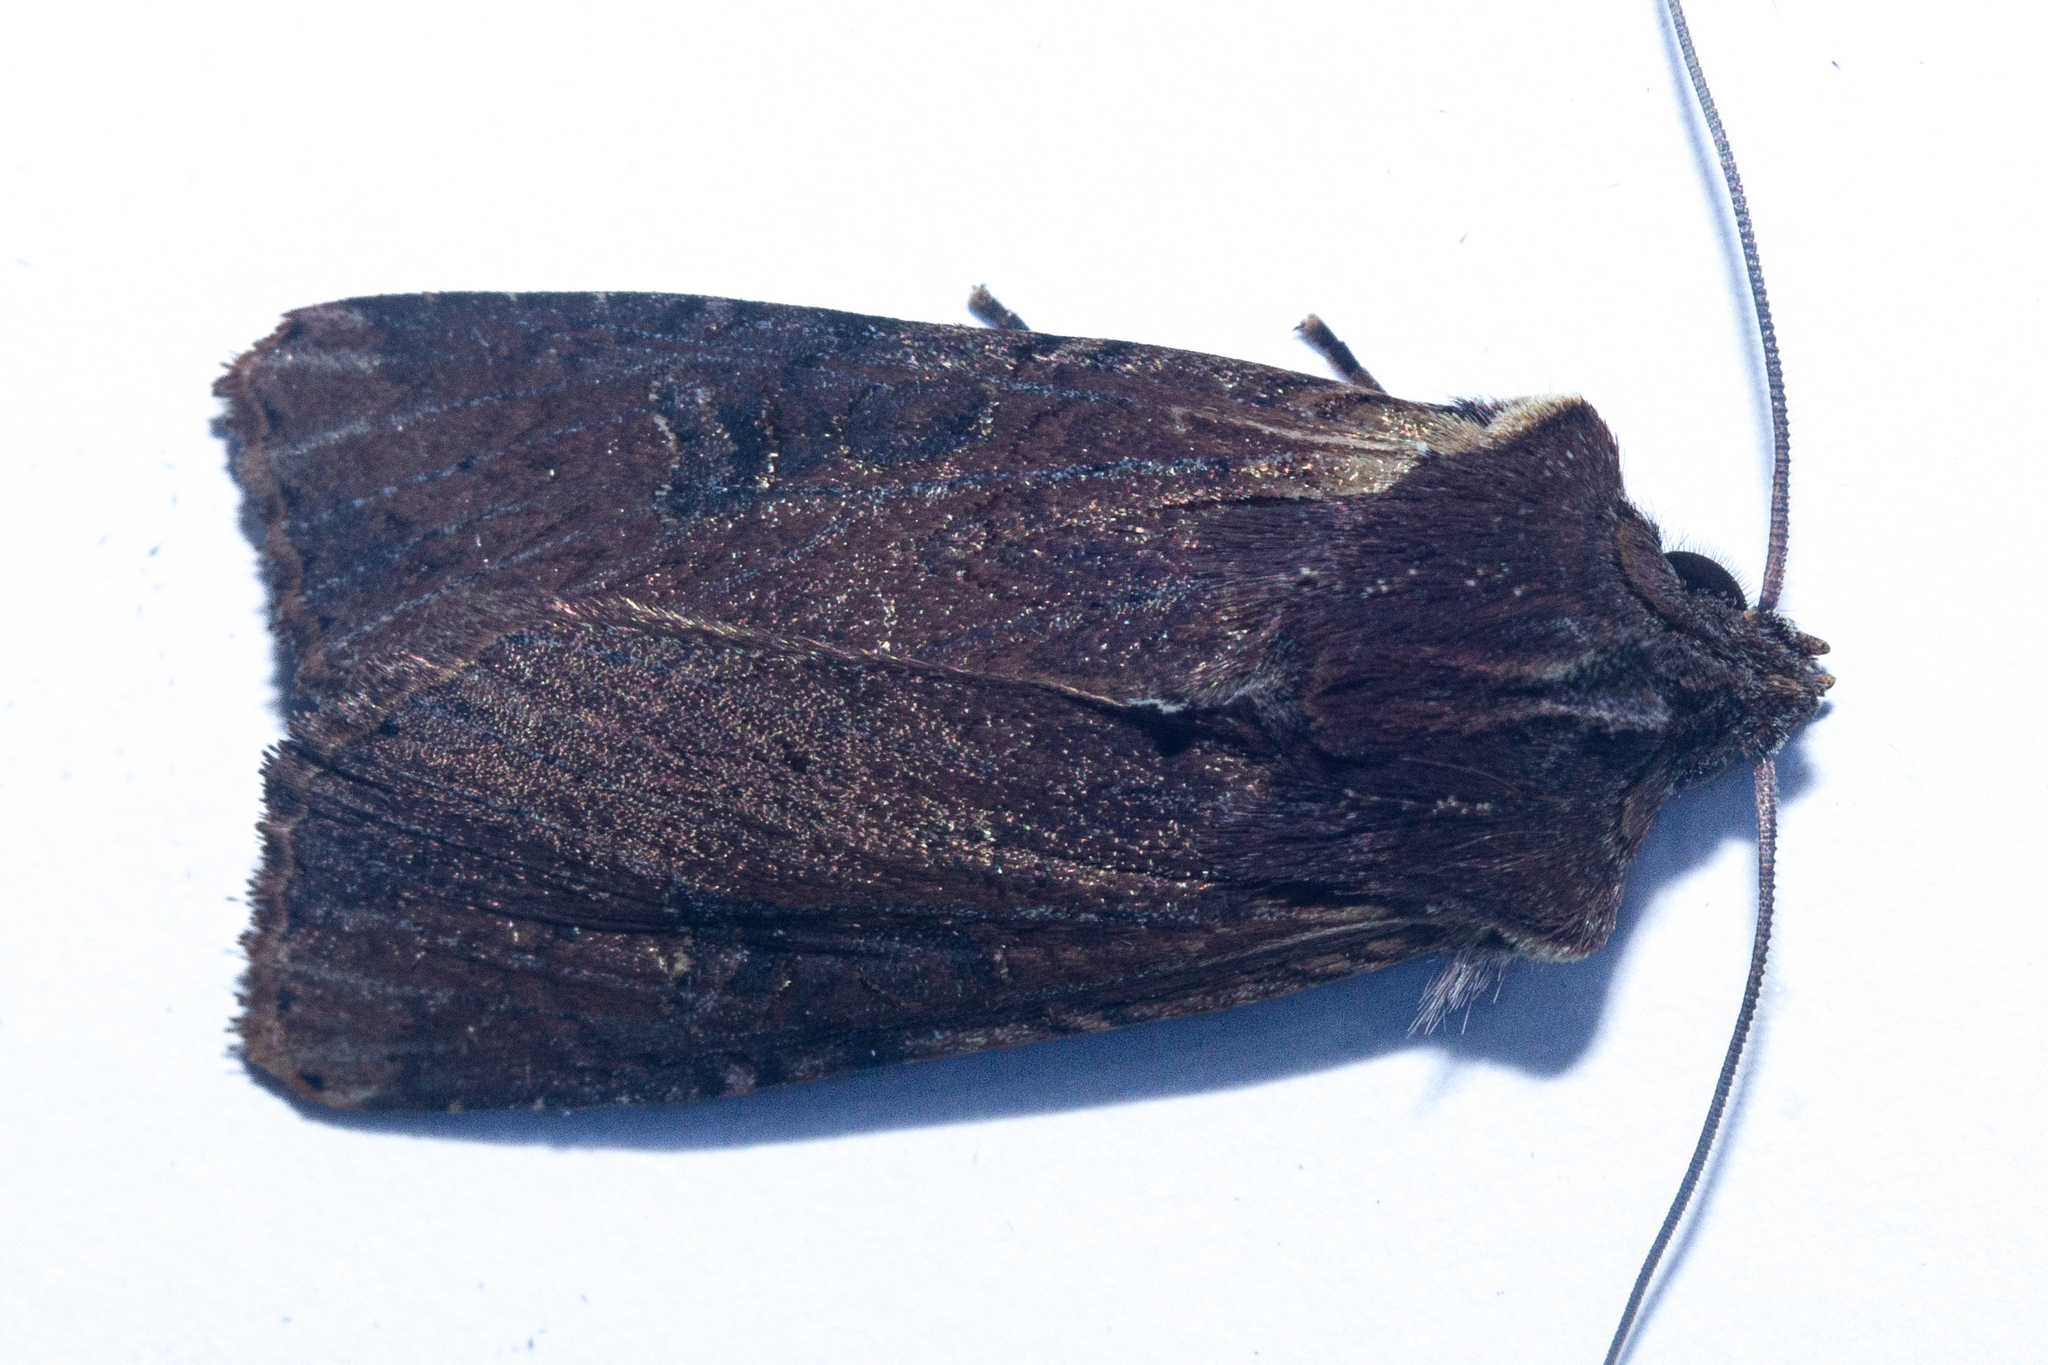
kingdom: Animalia
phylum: Arthropoda
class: Insecta
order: Lepidoptera
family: Noctuidae
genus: Ichneutica
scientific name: Ichneutica omoplaca
